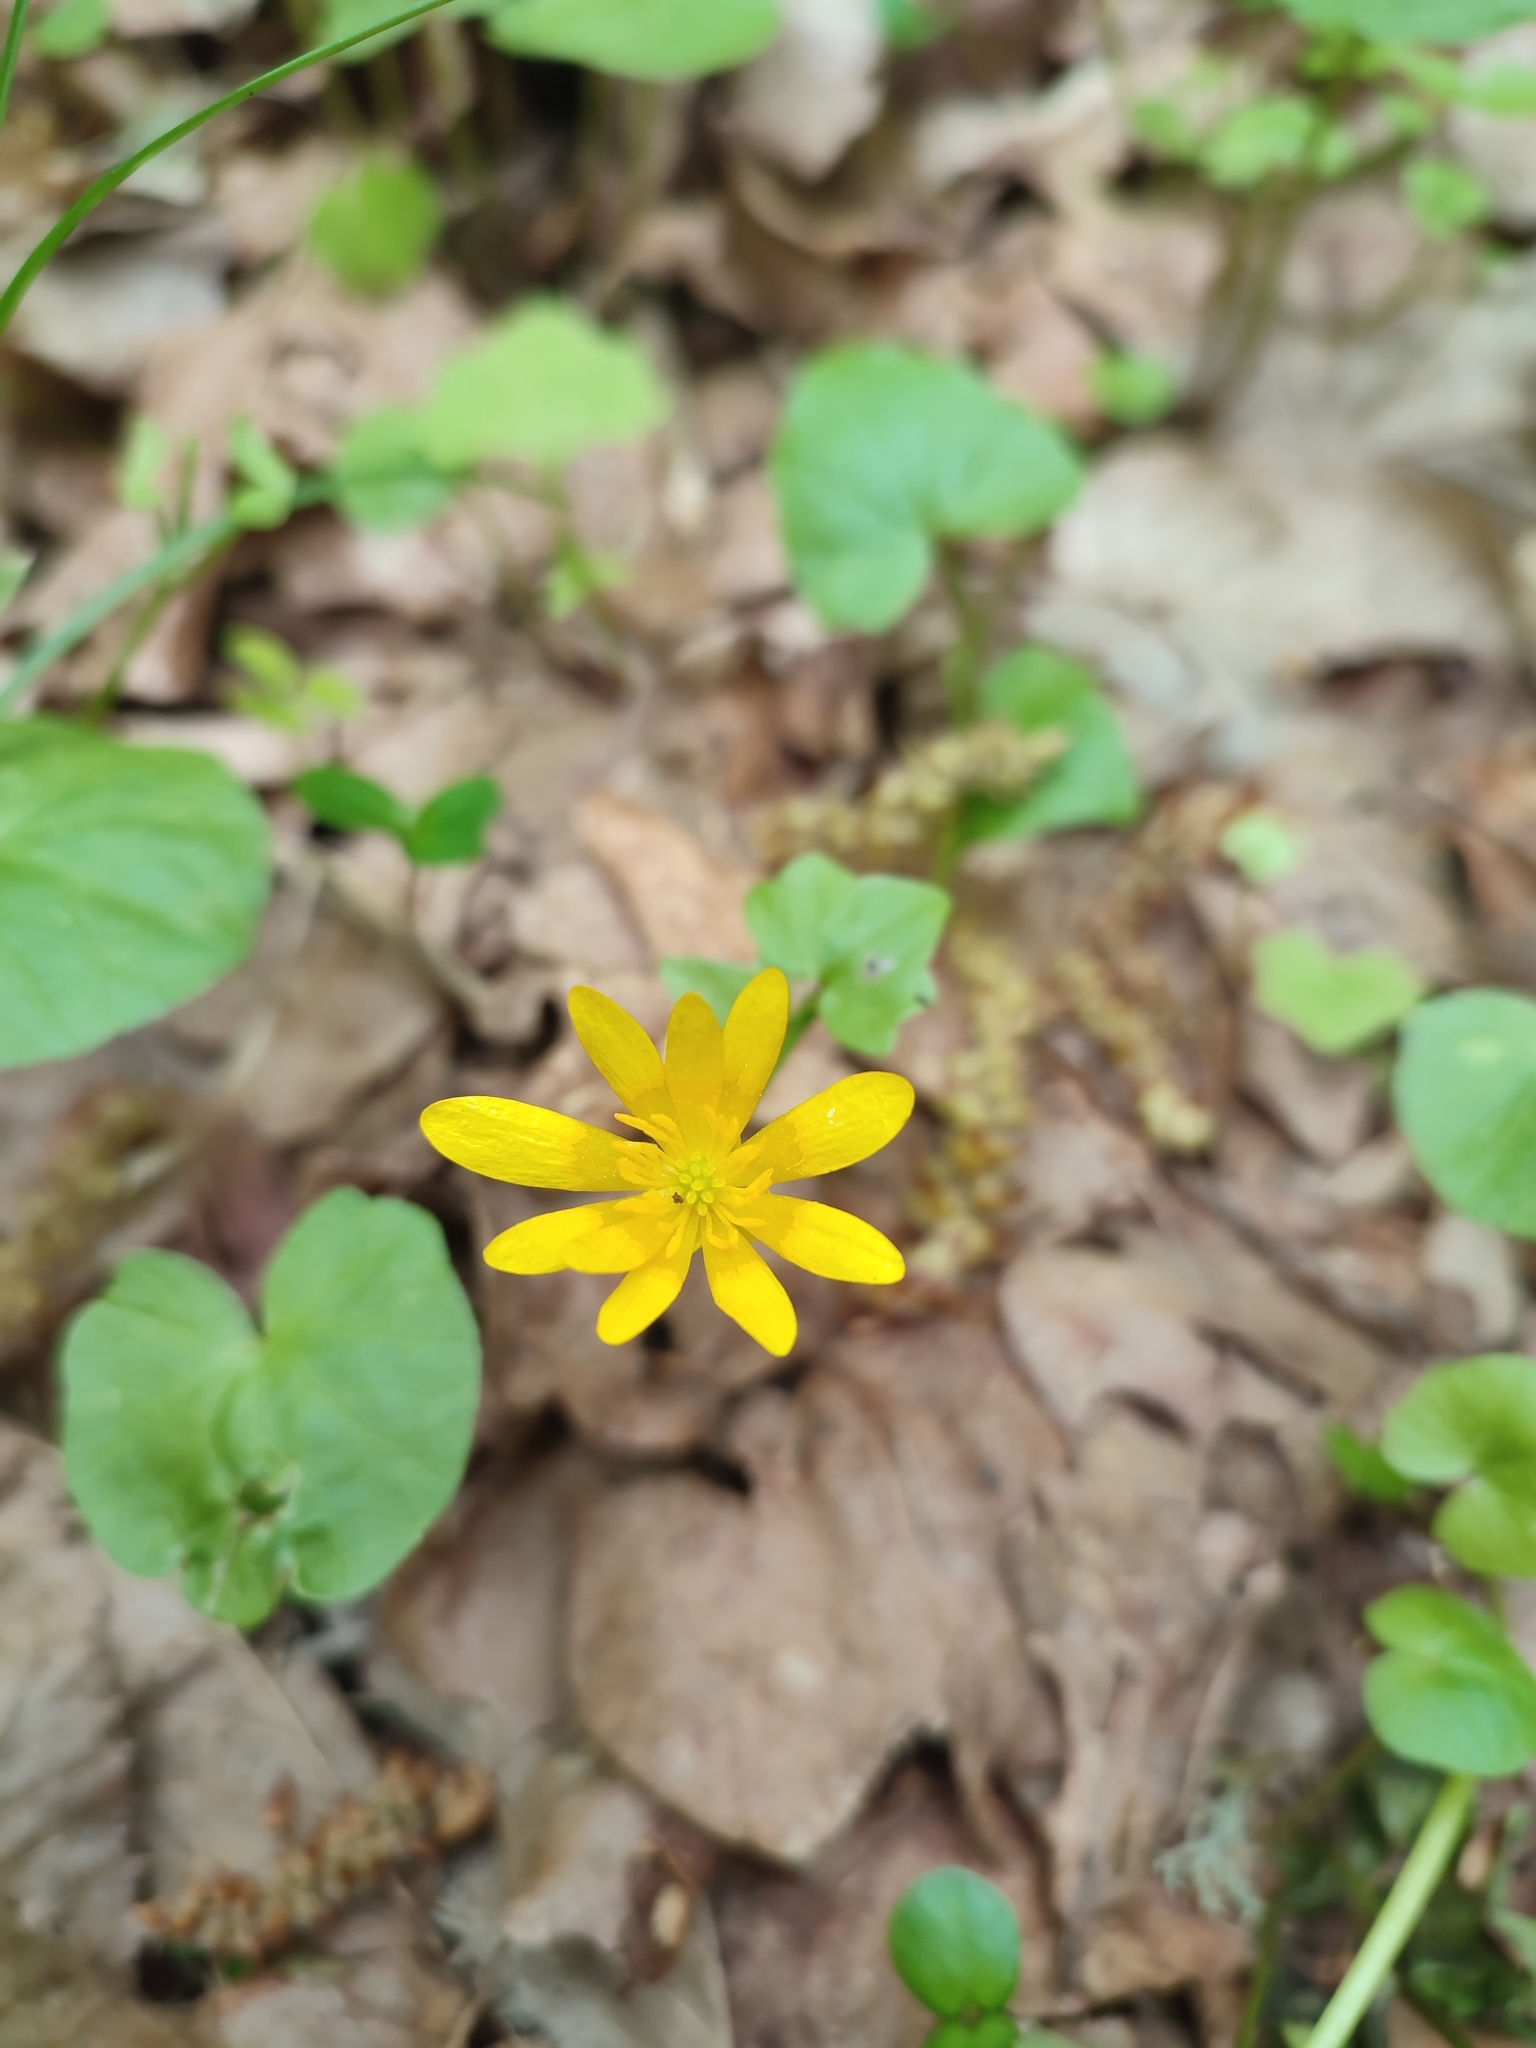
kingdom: Plantae
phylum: Tracheophyta
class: Magnoliopsida
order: Ranunculales
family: Ranunculaceae
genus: Ficaria
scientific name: Ficaria verna
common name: Lesser celandine
